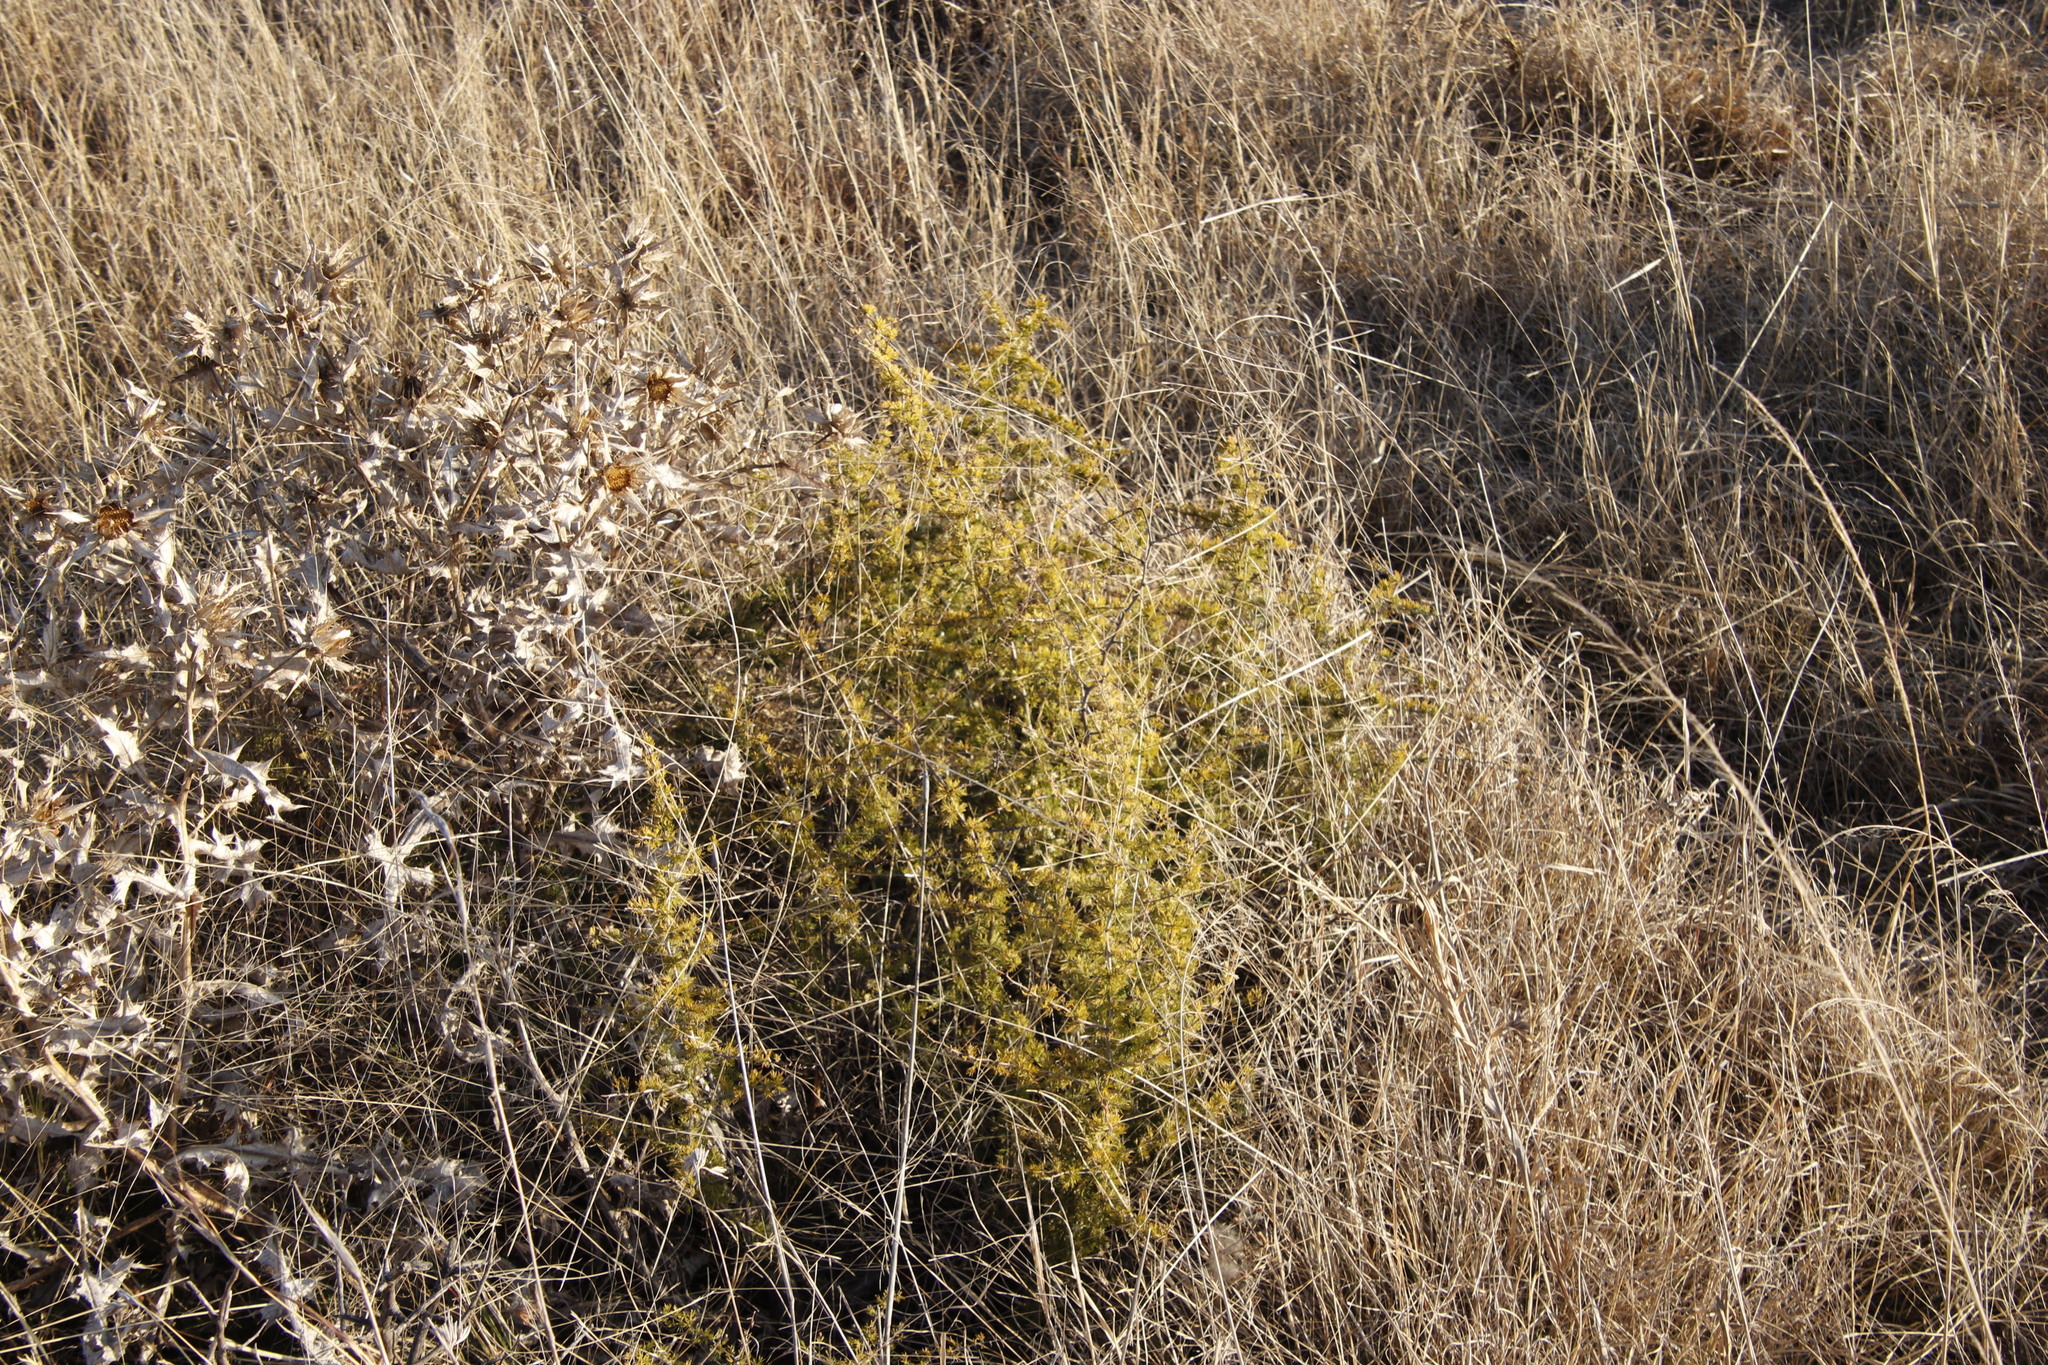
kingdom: Plantae
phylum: Tracheophyta
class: Liliopsida
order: Asparagales
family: Asparagaceae
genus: Asparagus
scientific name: Asparagus africanus
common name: Asparagus-fern
